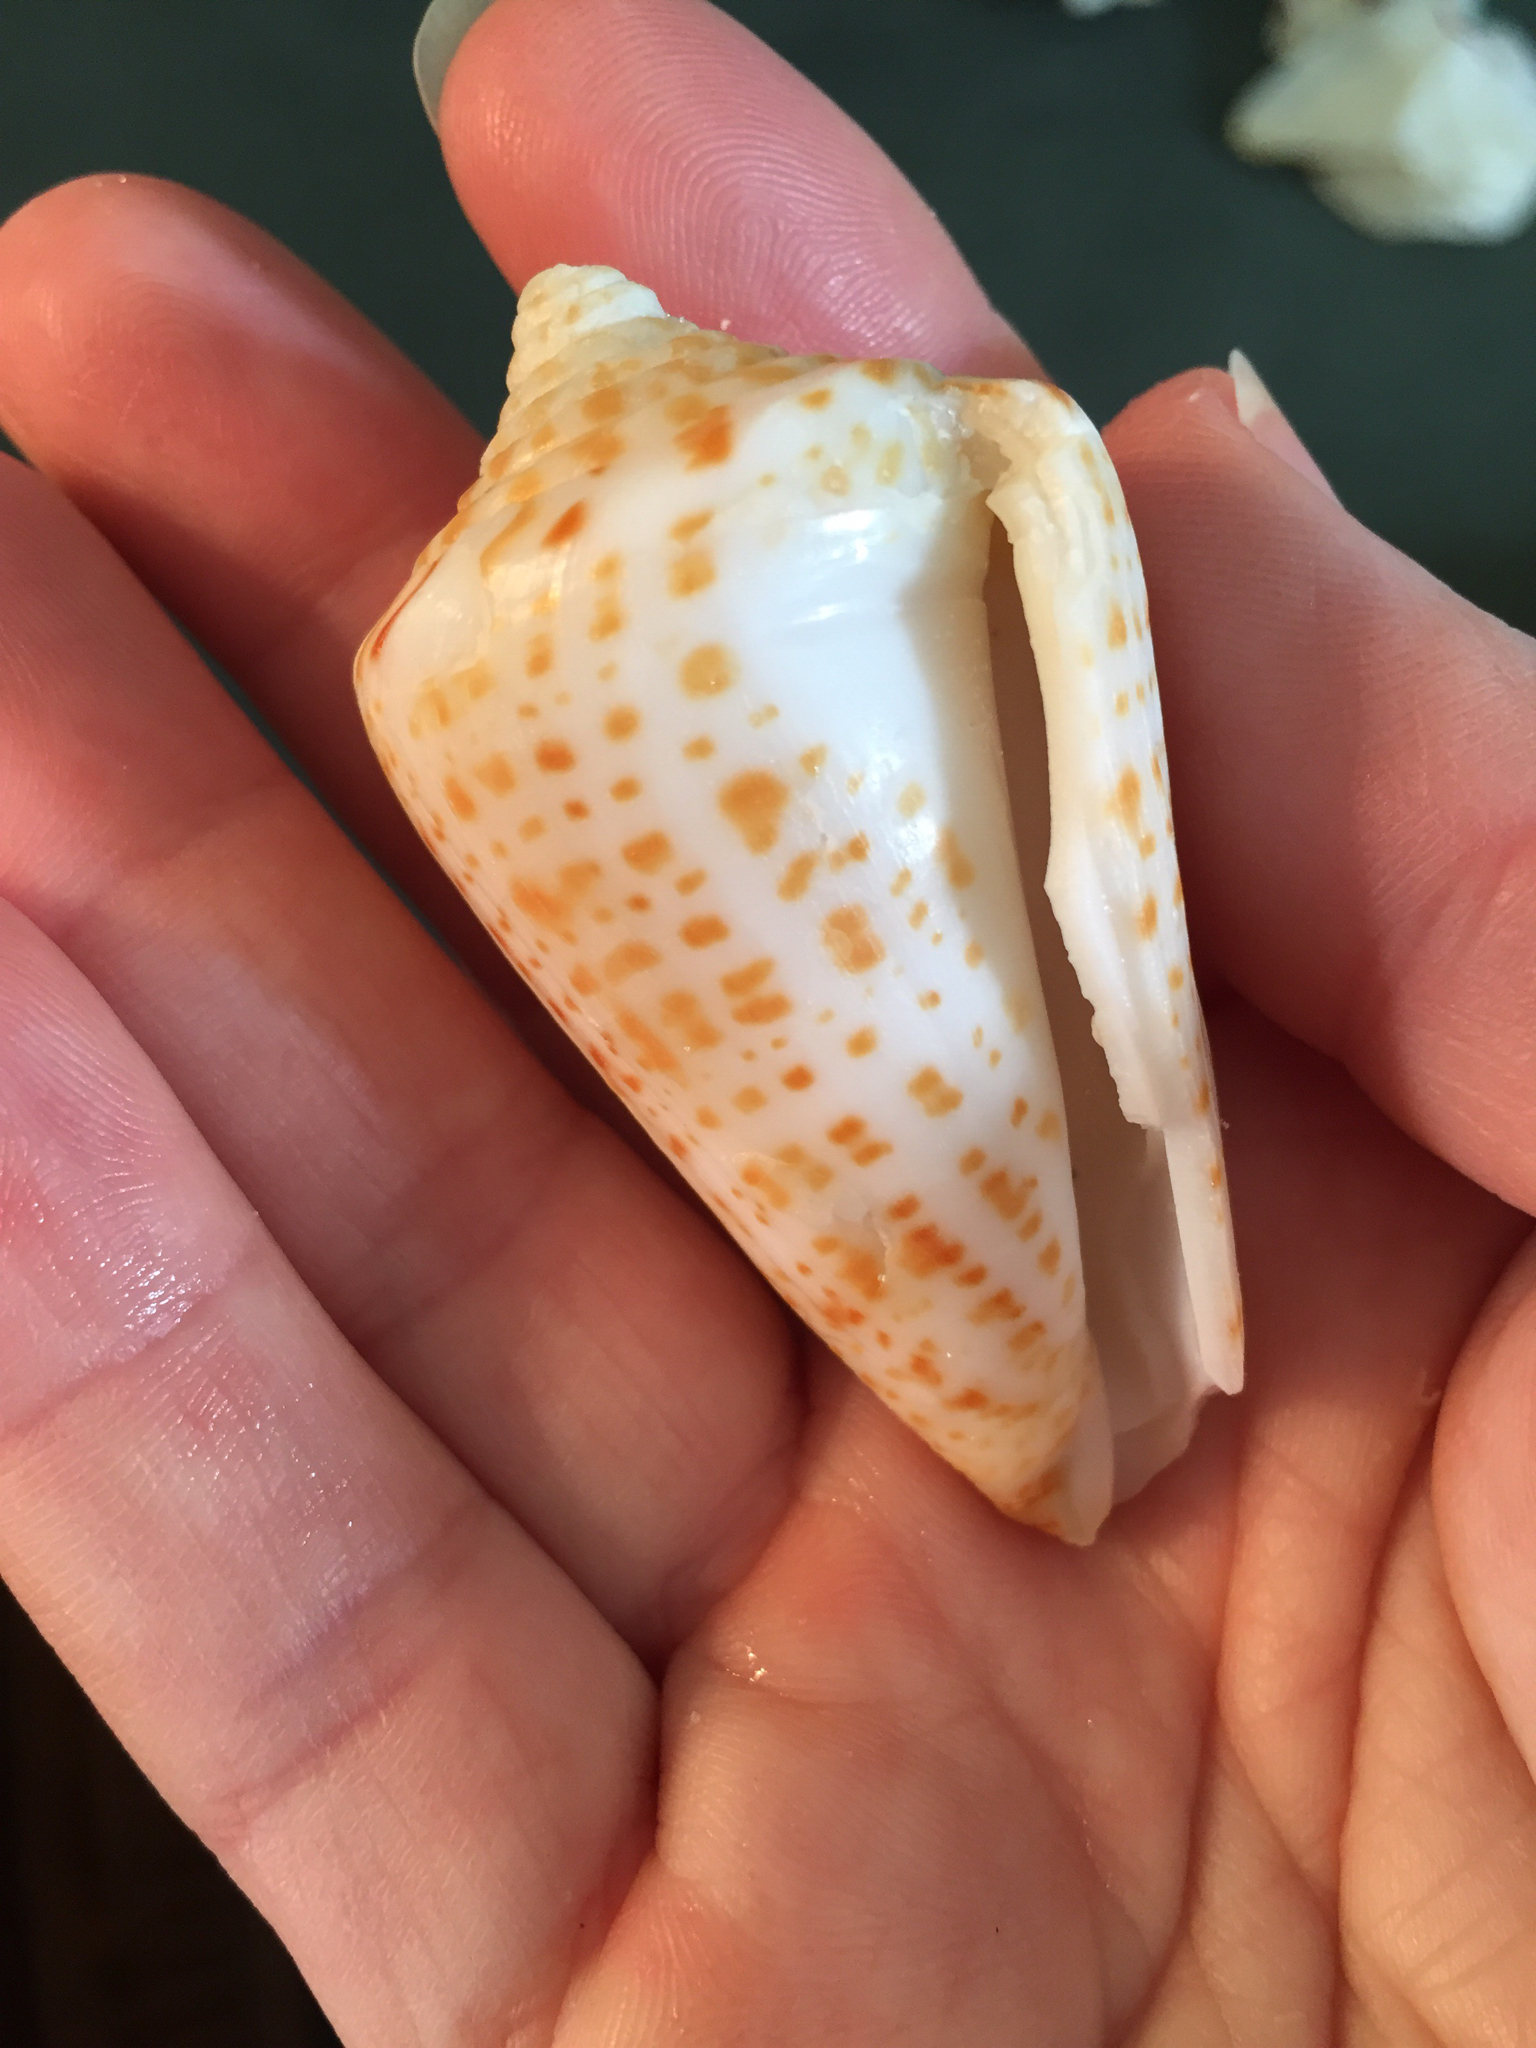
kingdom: Animalia
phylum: Mollusca
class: Gastropoda
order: Neogastropoda
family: Conidae
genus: Conus
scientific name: Conus spurius
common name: Alphabet cone
